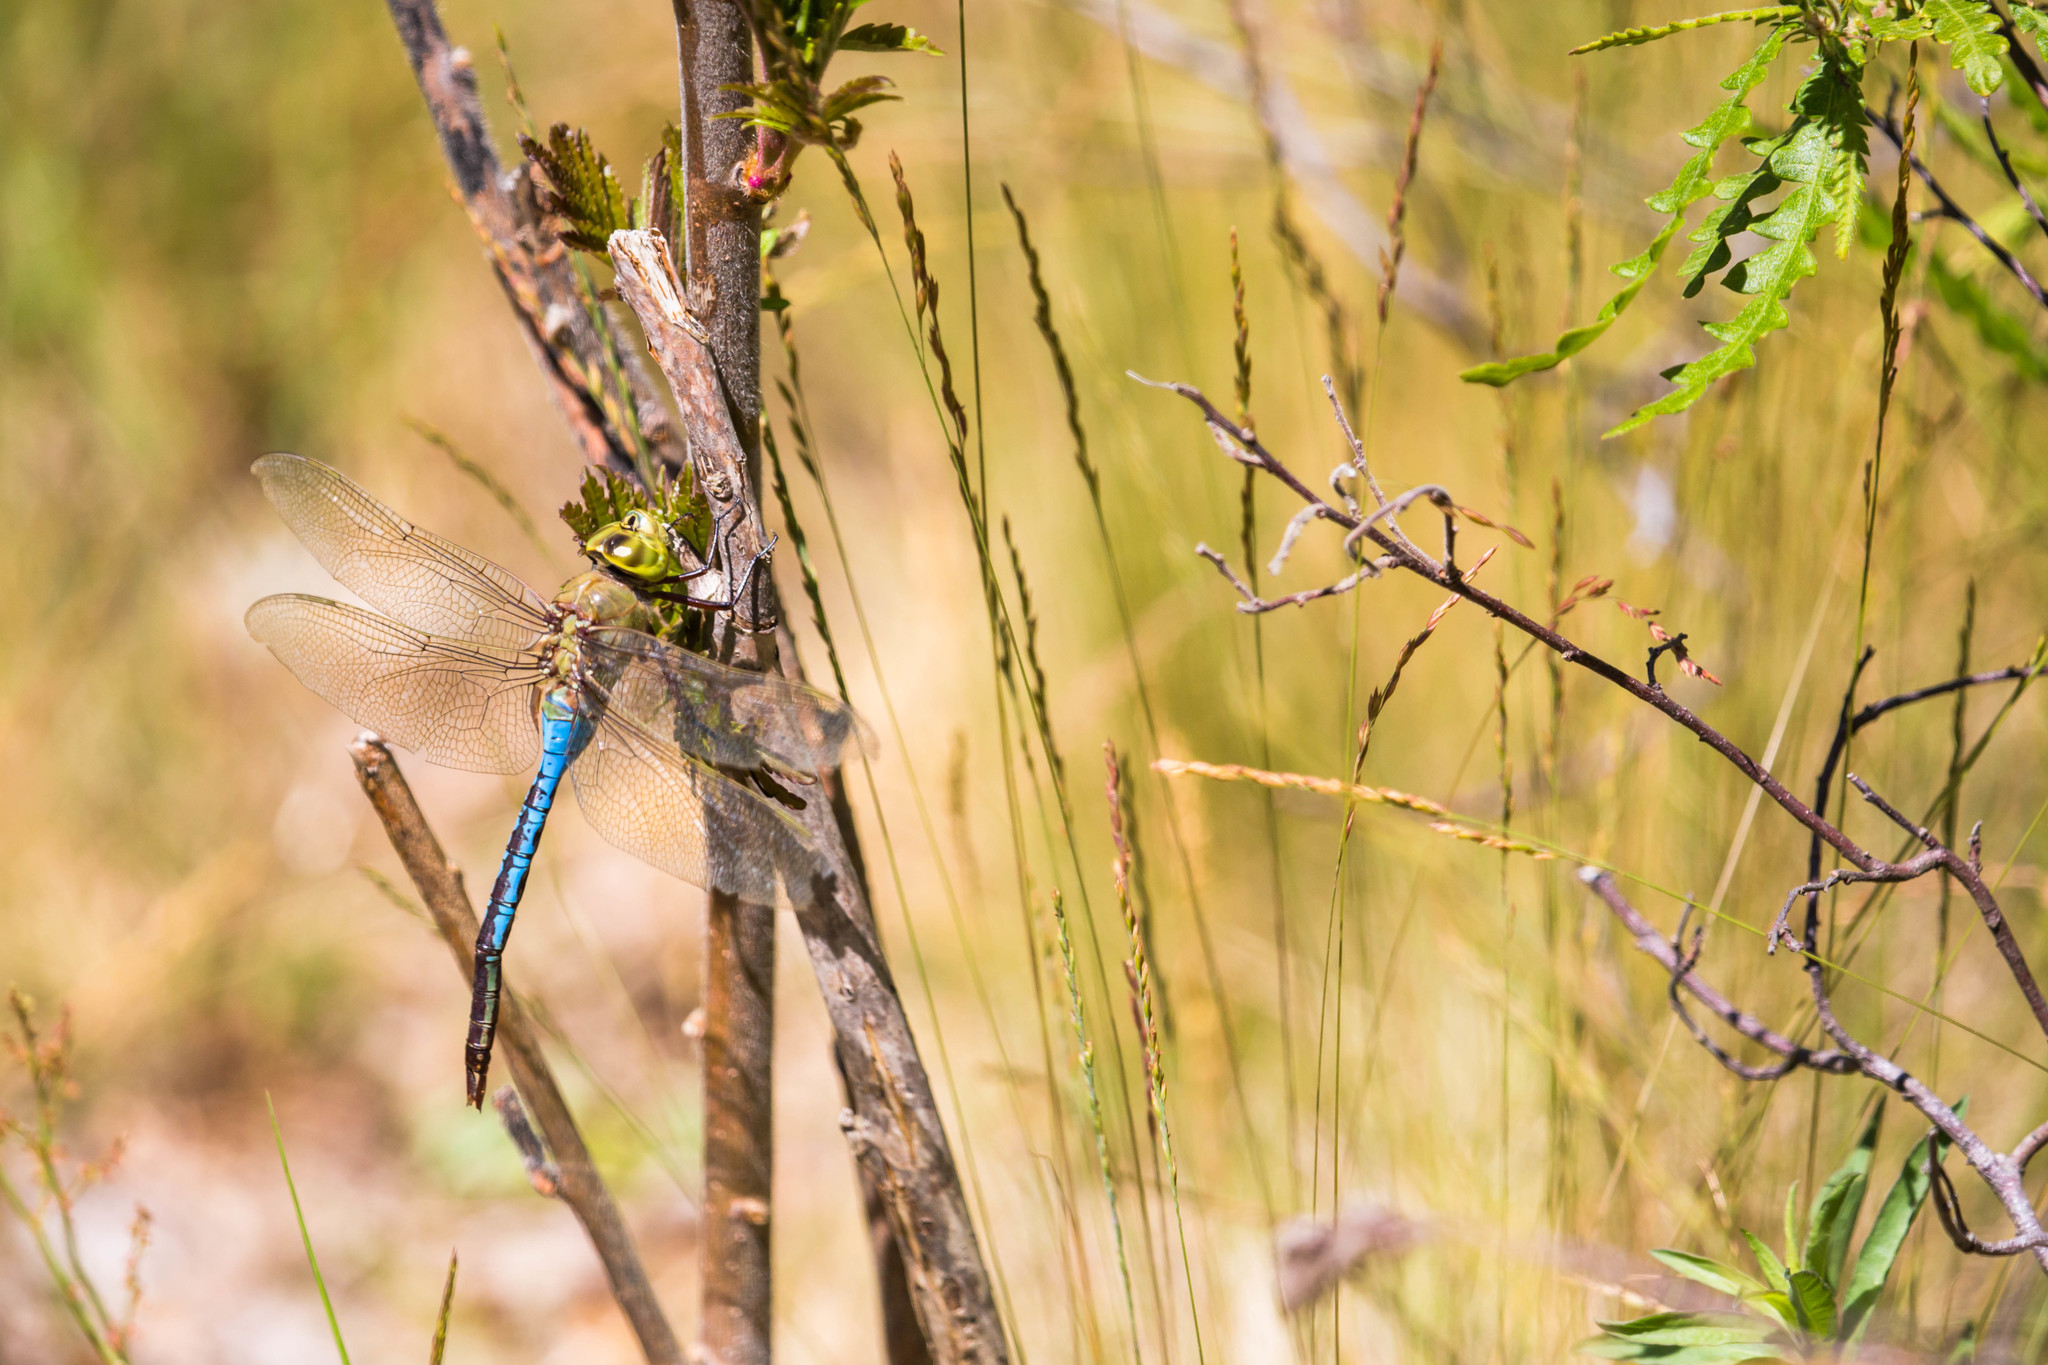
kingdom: Animalia
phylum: Arthropoda
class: Insecta
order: Odonata
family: Aeshnidae
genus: Anax
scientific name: Anax junius
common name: Common green darner
